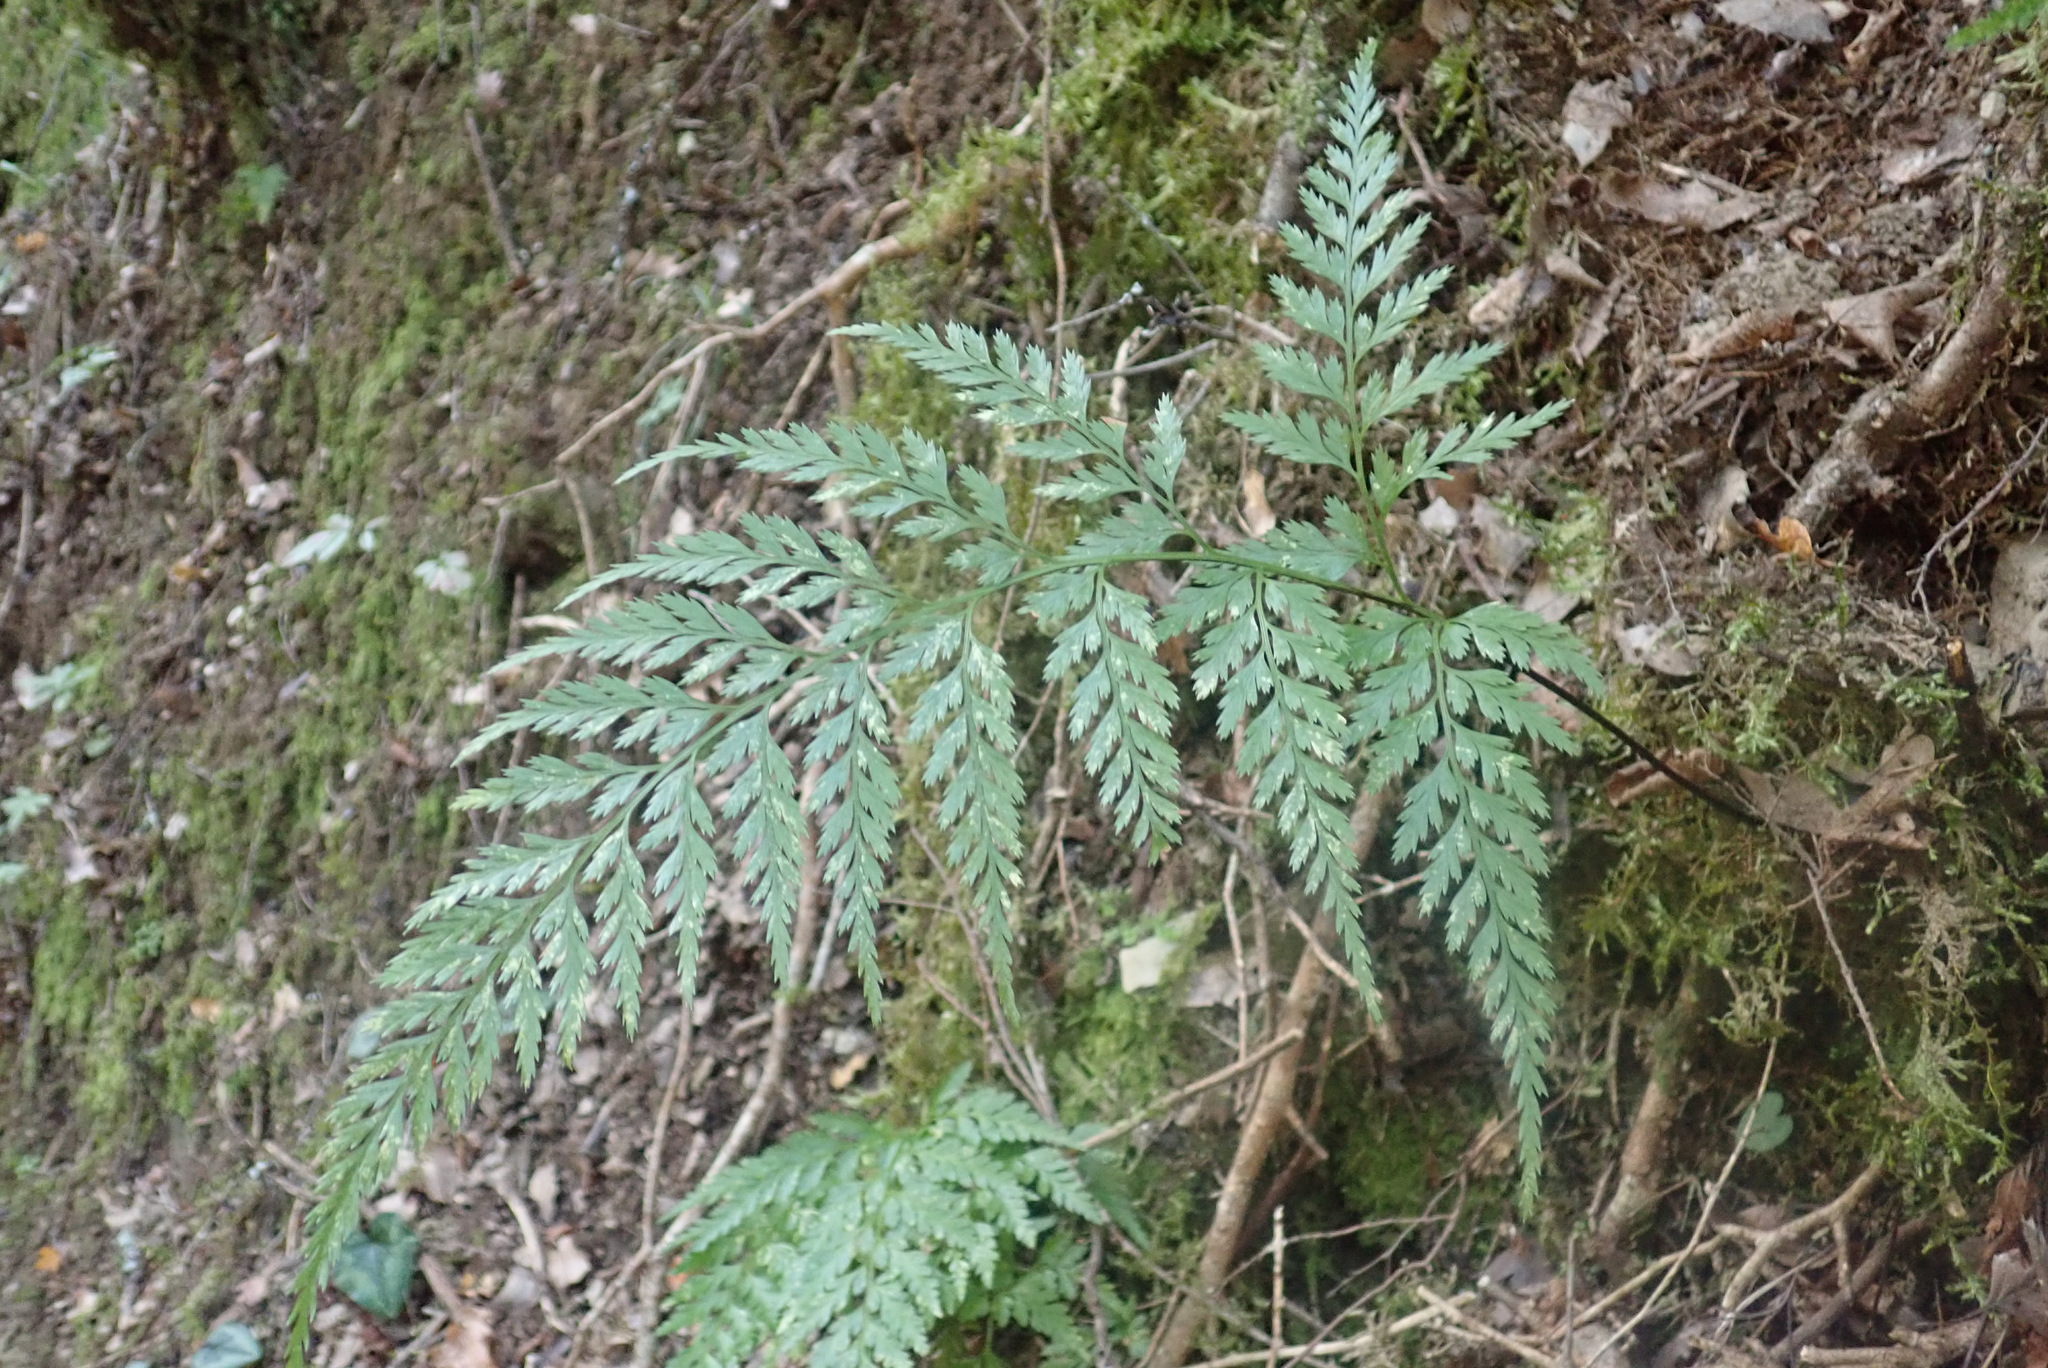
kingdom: Plantae
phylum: Tracheophyta
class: Polypodiopsida
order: Polypodiales
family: Aspleniaceae
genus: Asplenium
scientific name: Asplenium onopteris
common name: Irish spleenwort
